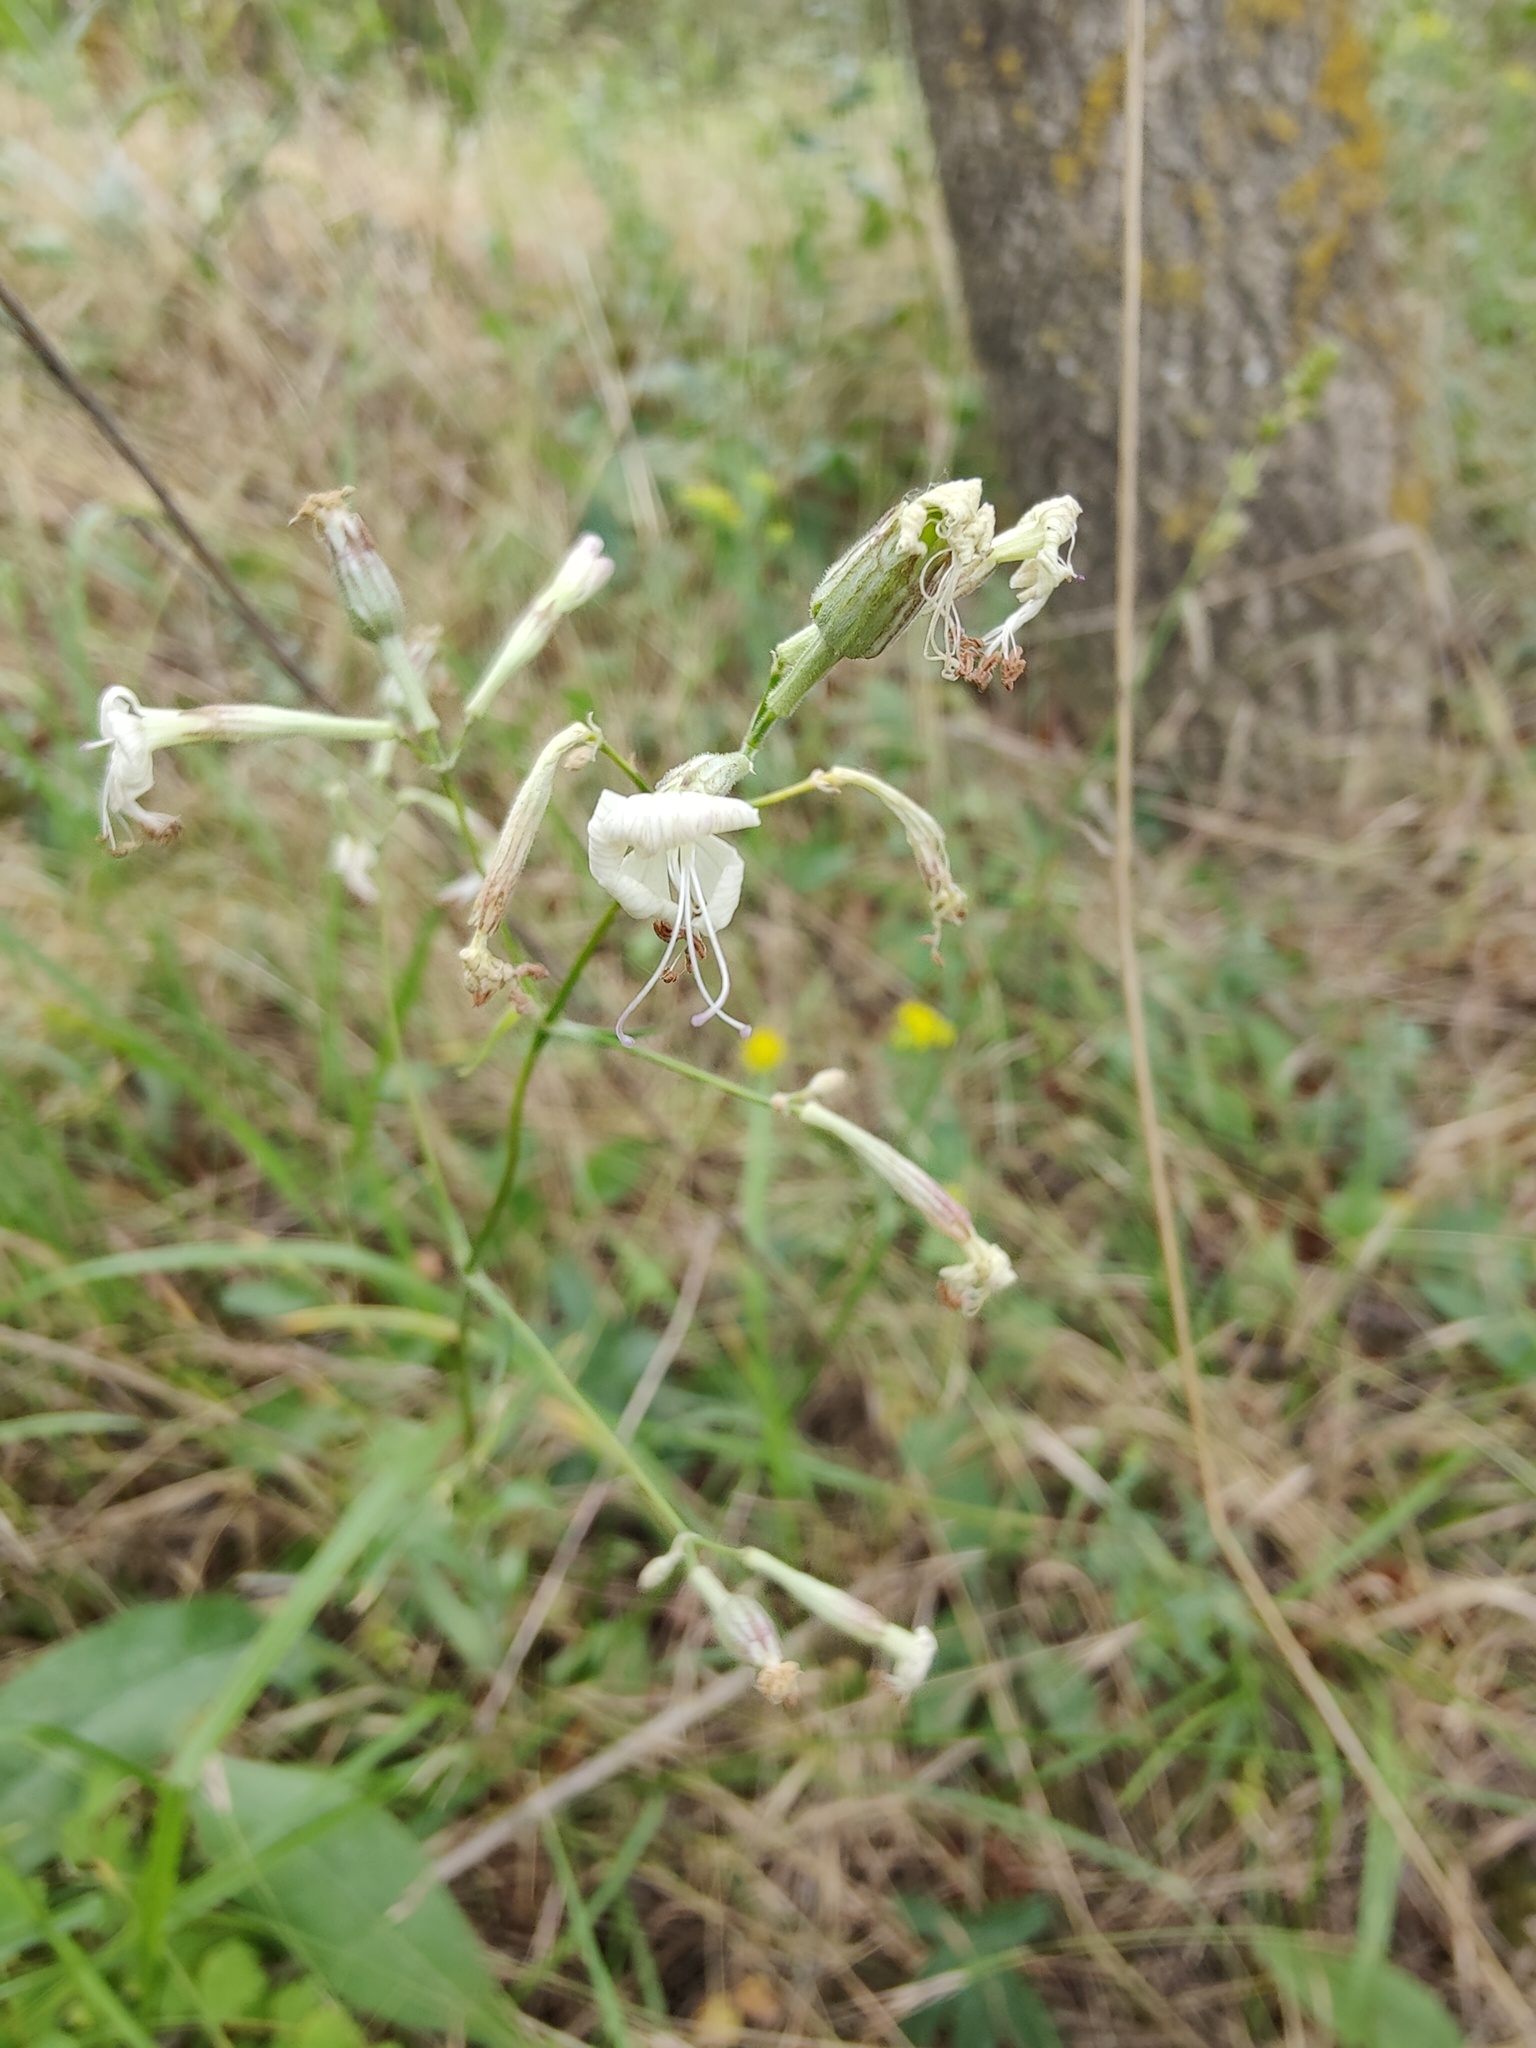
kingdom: Plantae
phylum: Tracheophyta
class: Magnoliopsida
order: Caryophyllales
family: Caryophyllaceae
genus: Silene
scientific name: Silene italica
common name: Italian catchfly
